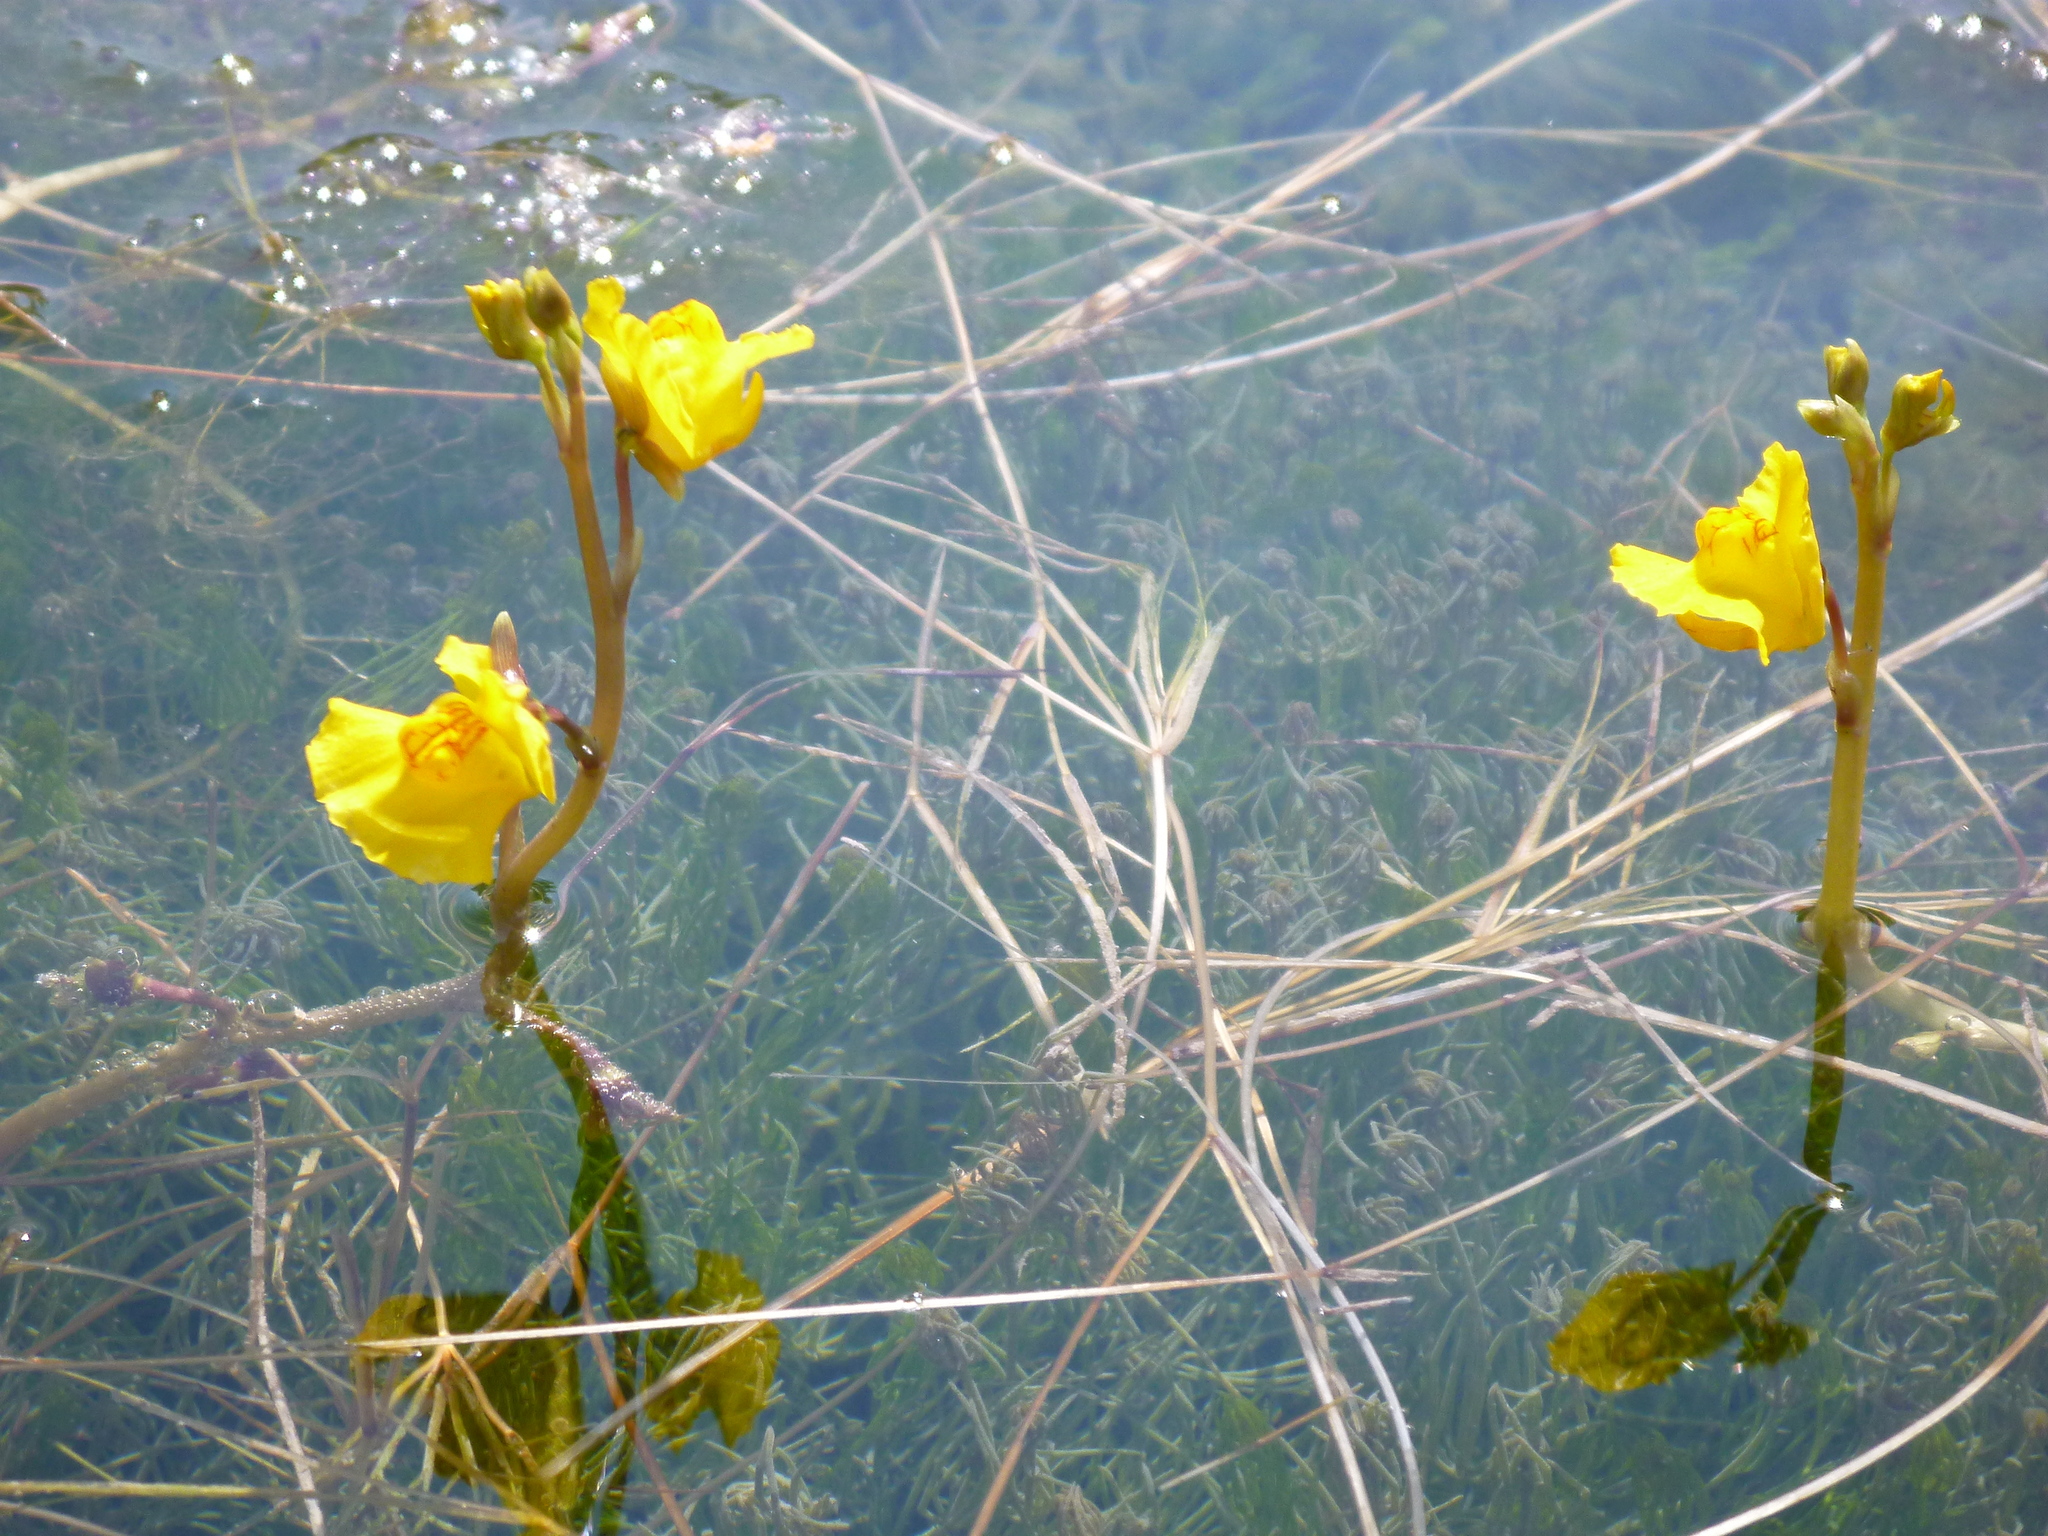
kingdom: Plantae
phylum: Tracheophyta
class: Magnoliopsida
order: Lamiales
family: Lentibulariaceae
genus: Utricularia
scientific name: Utricularia macrorhiza
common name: Common bladderwort
